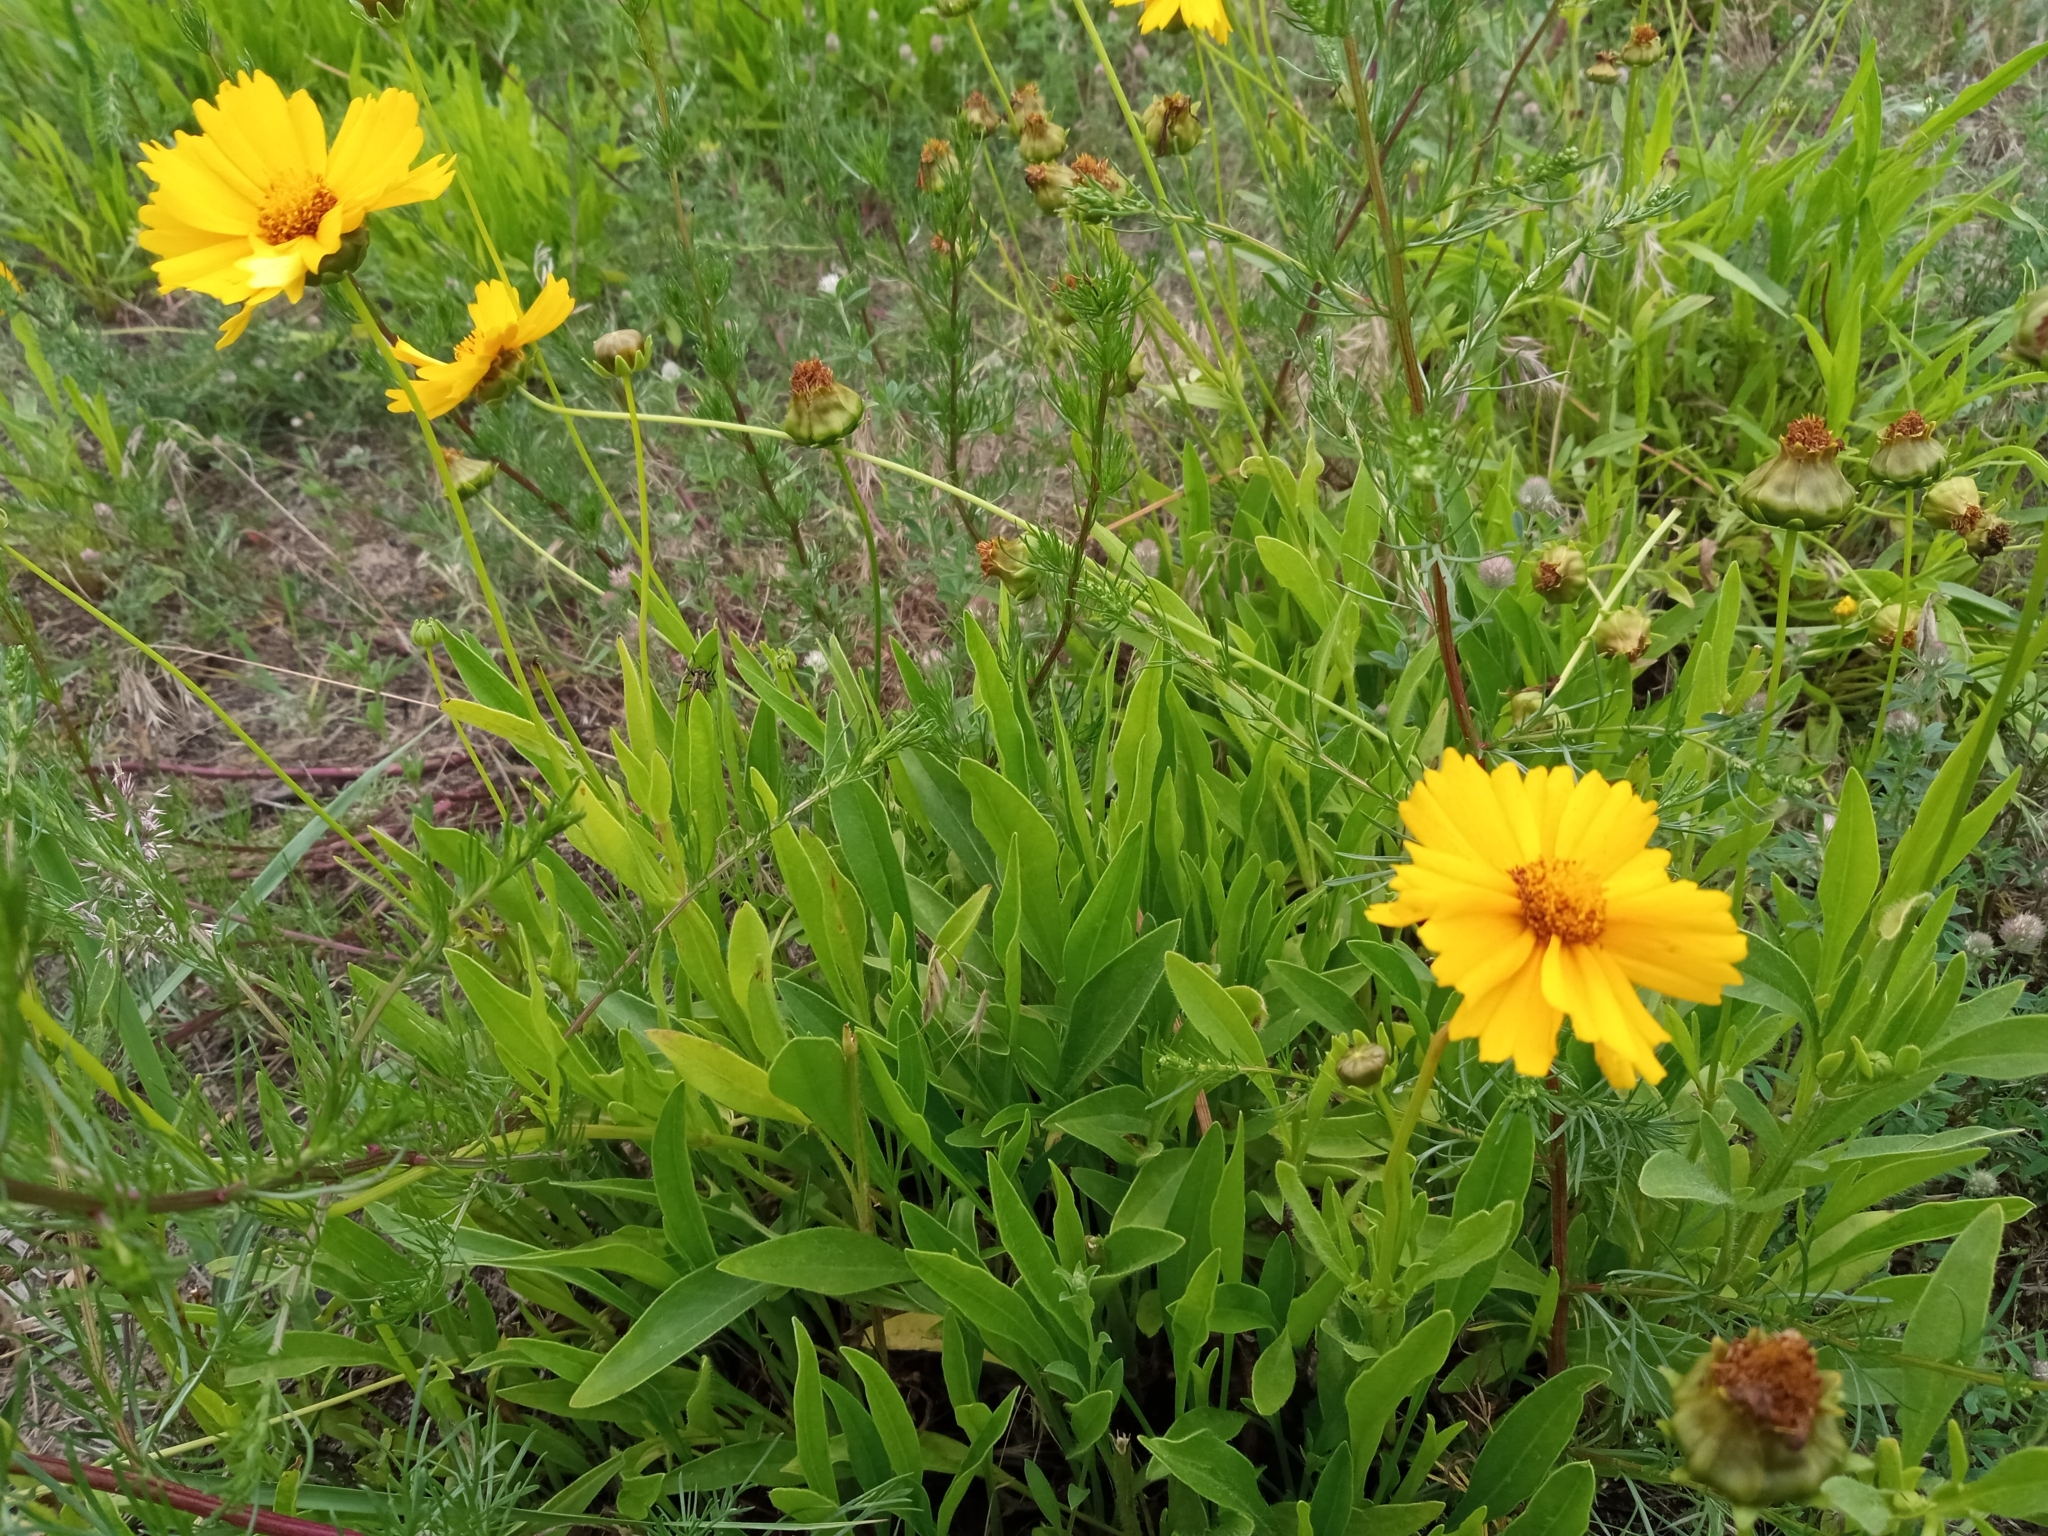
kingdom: Plantae
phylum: Tracheophyta
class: Magnoliopsida
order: Asterales
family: Asteraceae
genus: Coreopsis
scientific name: Coreopsis lanceolata
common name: Garden coreopsis
